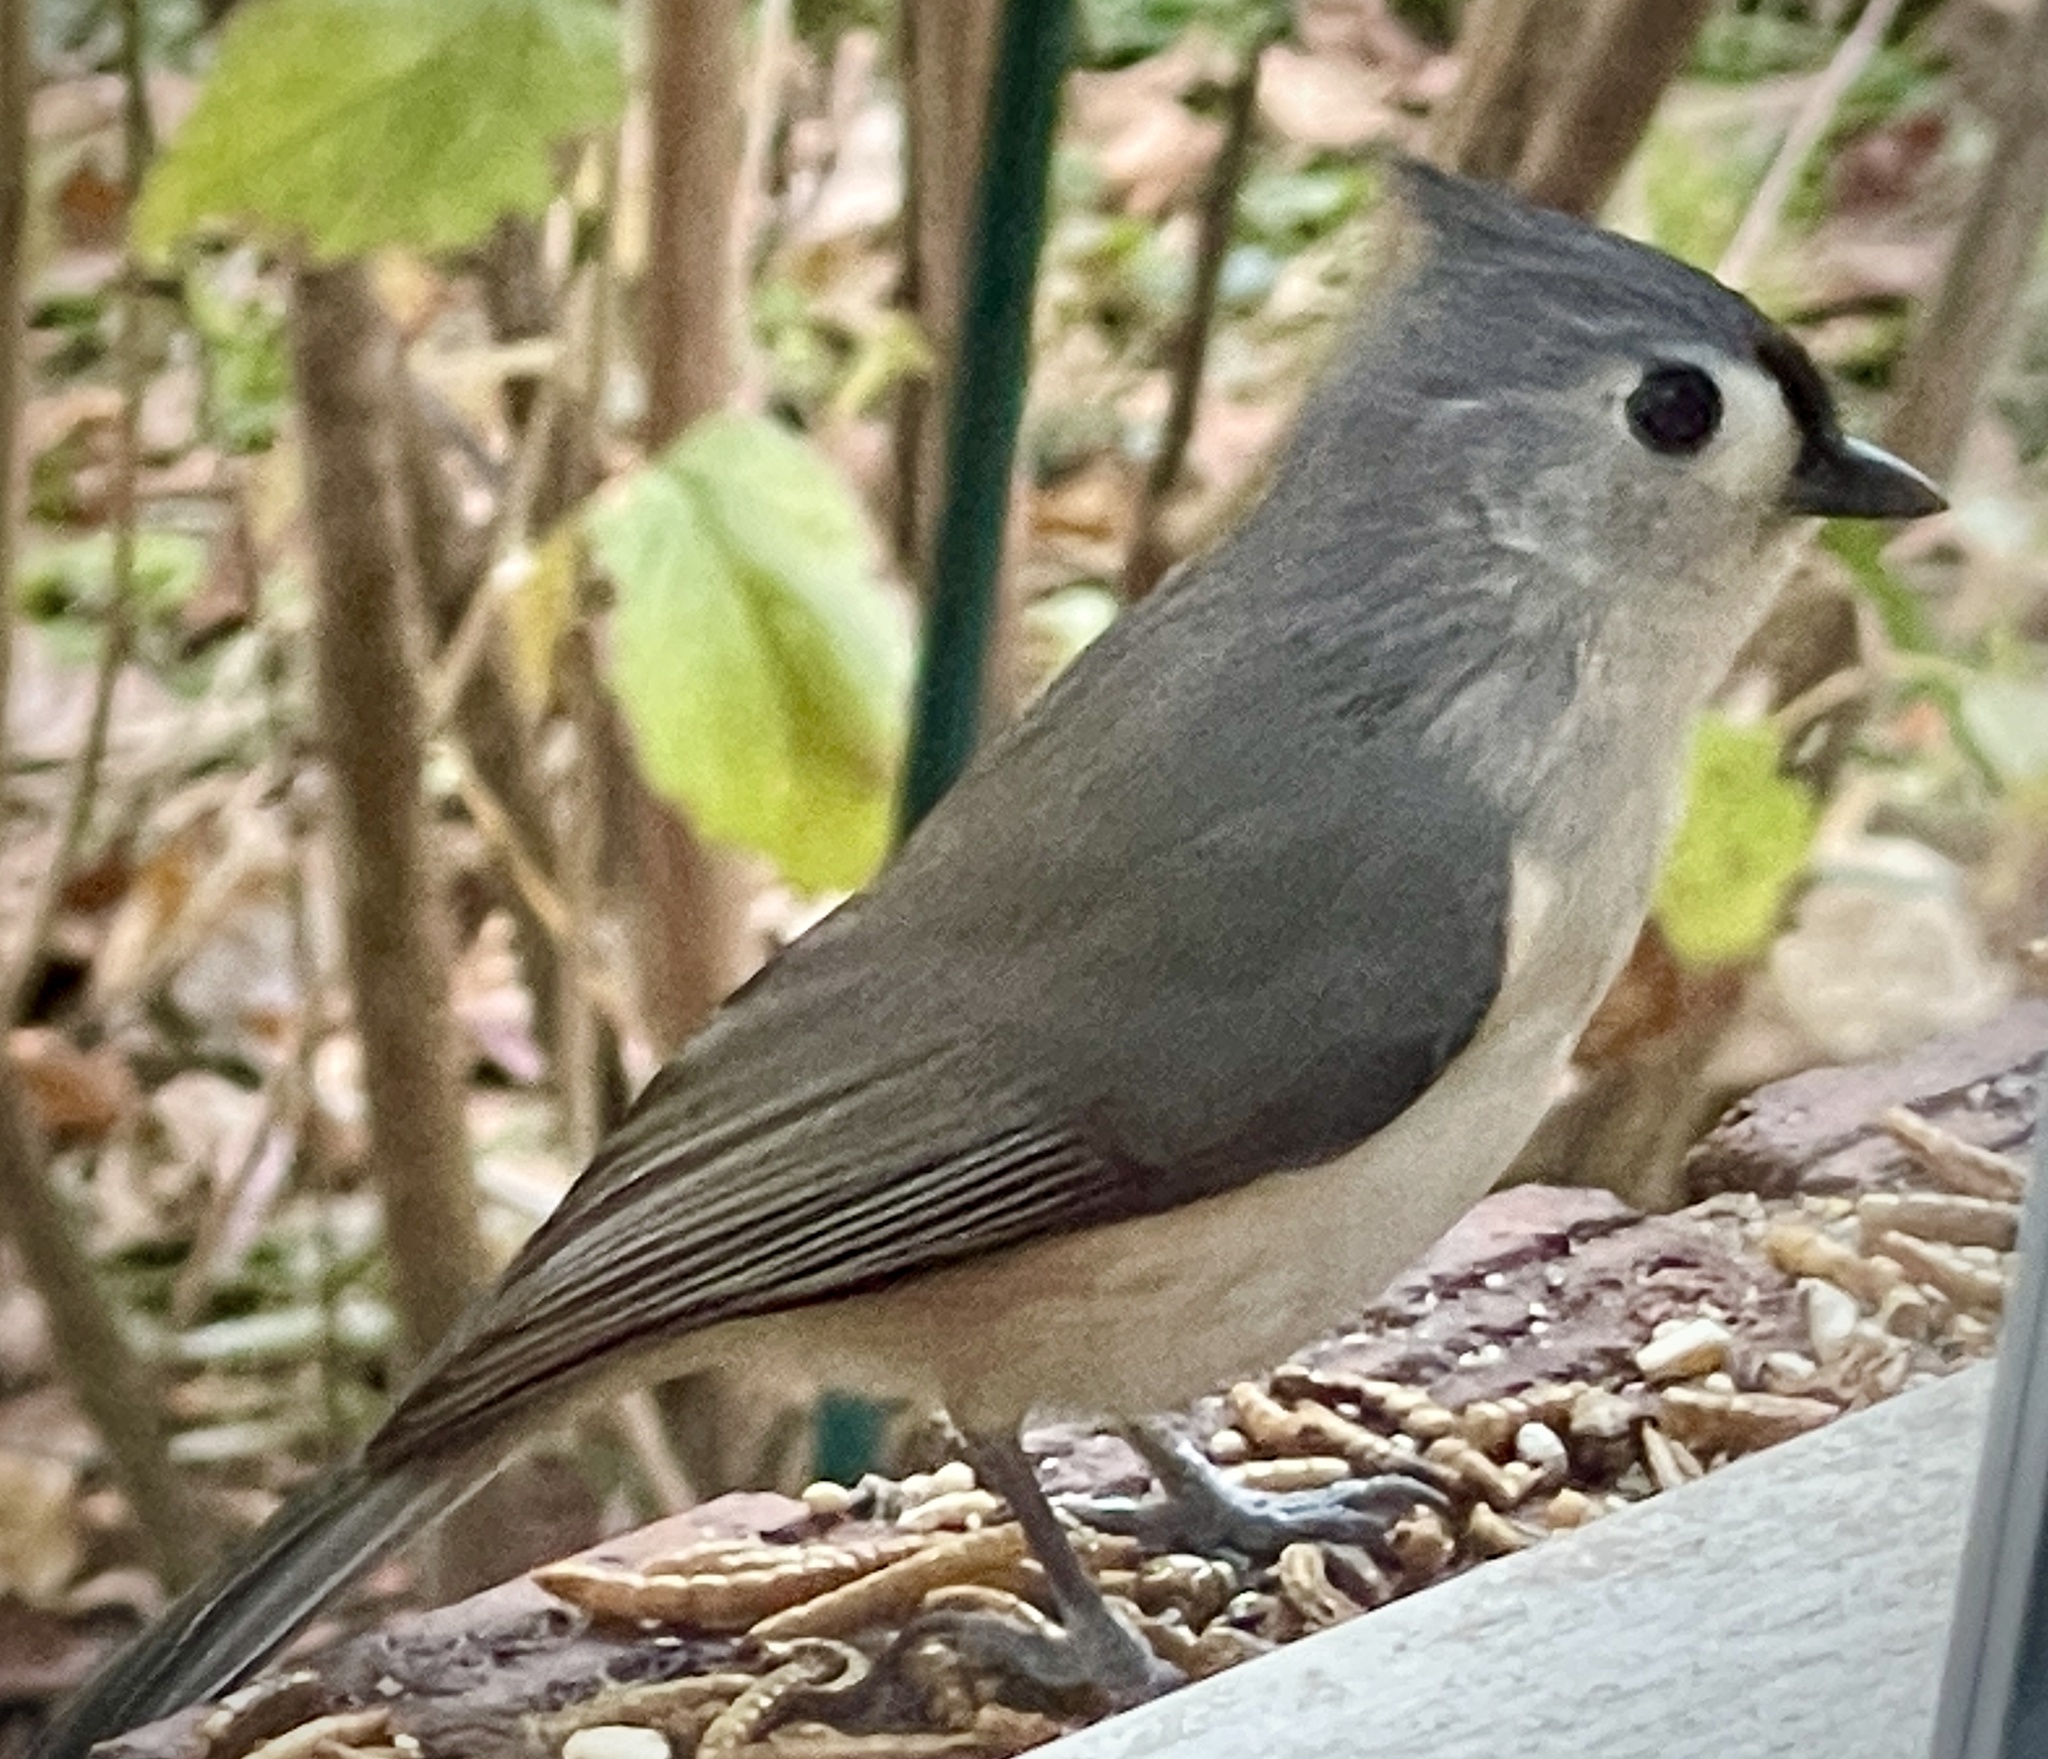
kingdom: Animalia
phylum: Chordata
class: Aves
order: Passeriformes
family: Paridae
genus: Baeolophus
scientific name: Baeolophus bicolor
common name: Tufted titmouse
